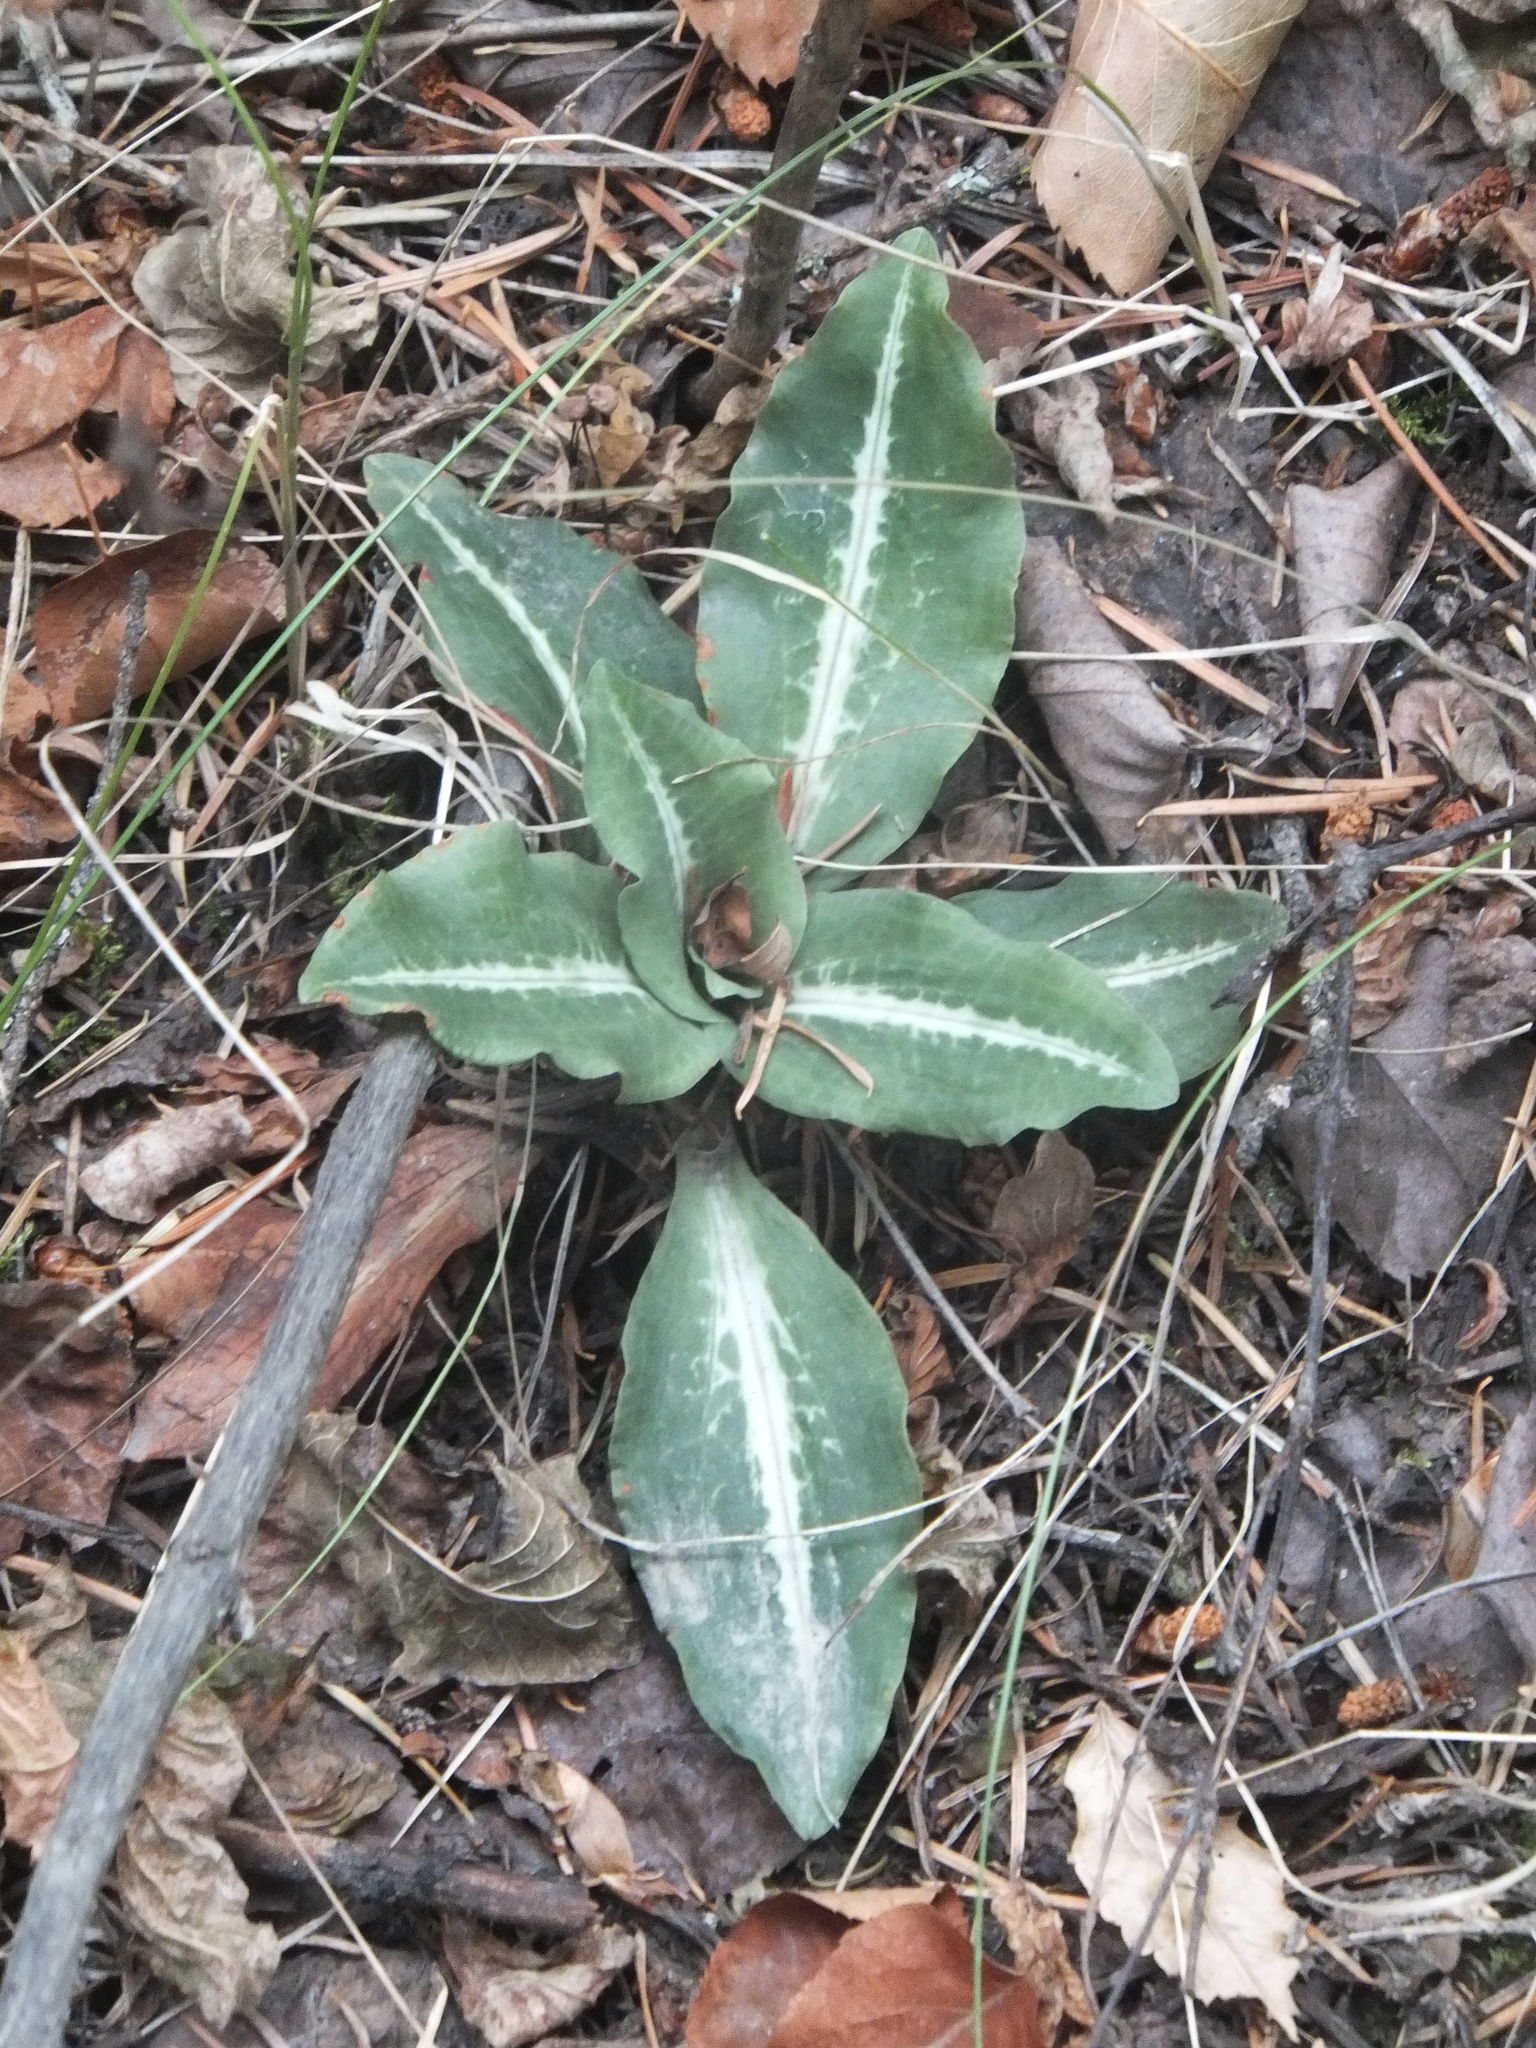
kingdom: Plantae
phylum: Tracheophyta
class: Liliopsida
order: Asparagales
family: Orchidaceae
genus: Goodyera
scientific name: Goodyera oblongifolia
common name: Giant rattlesnake-plantain
